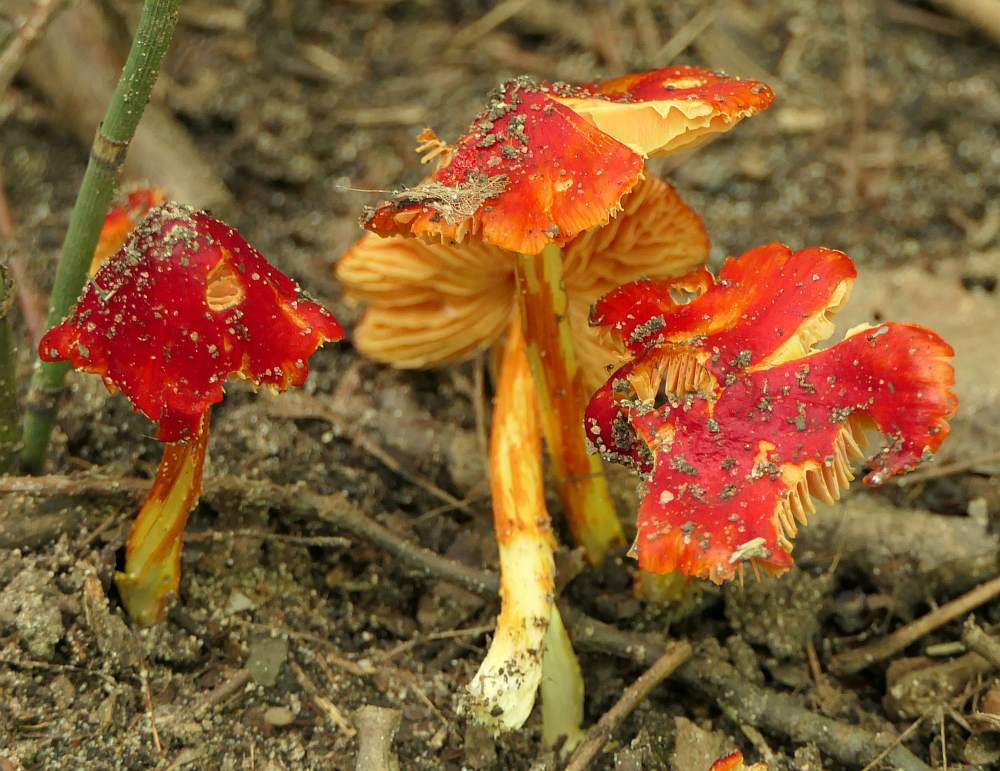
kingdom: Fungi
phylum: Basidiomycota
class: Agaricomycetes
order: Agaricales
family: Hygrophoraceae
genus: Hygrocybe
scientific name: Hygrocybe cuspidata
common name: Candy apple waxy cap
